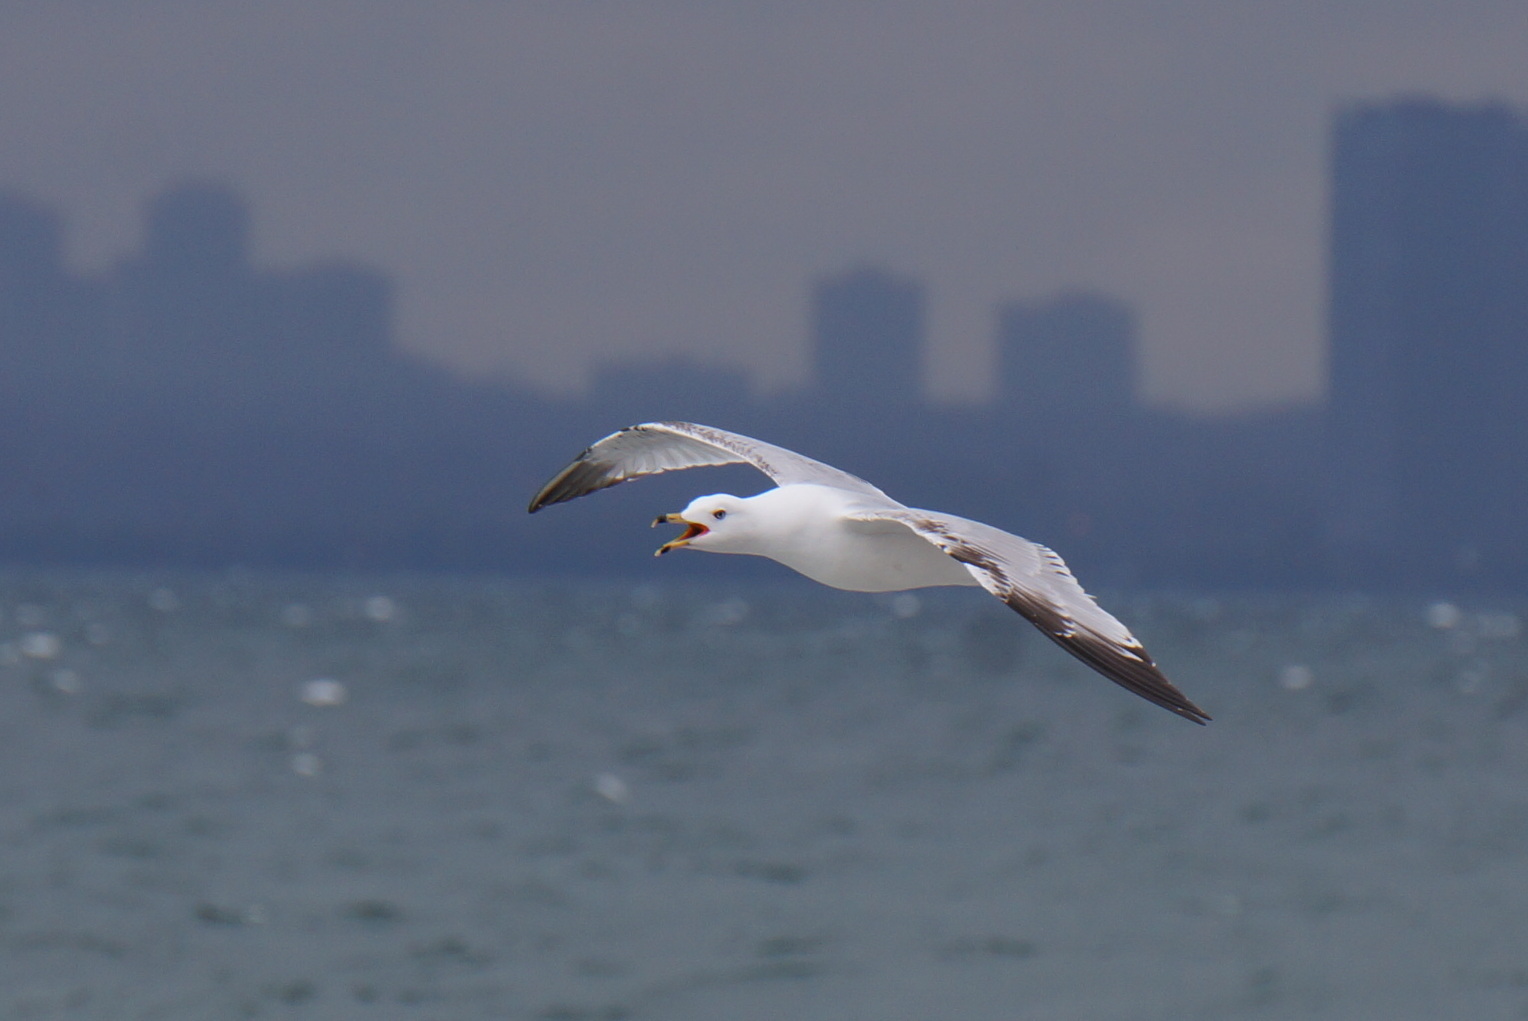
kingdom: Animalia
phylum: Chordata
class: Aves
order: Charadriiformes
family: Laridae
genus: Larus
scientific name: Larus delawarensis
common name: Ring-billed gull
